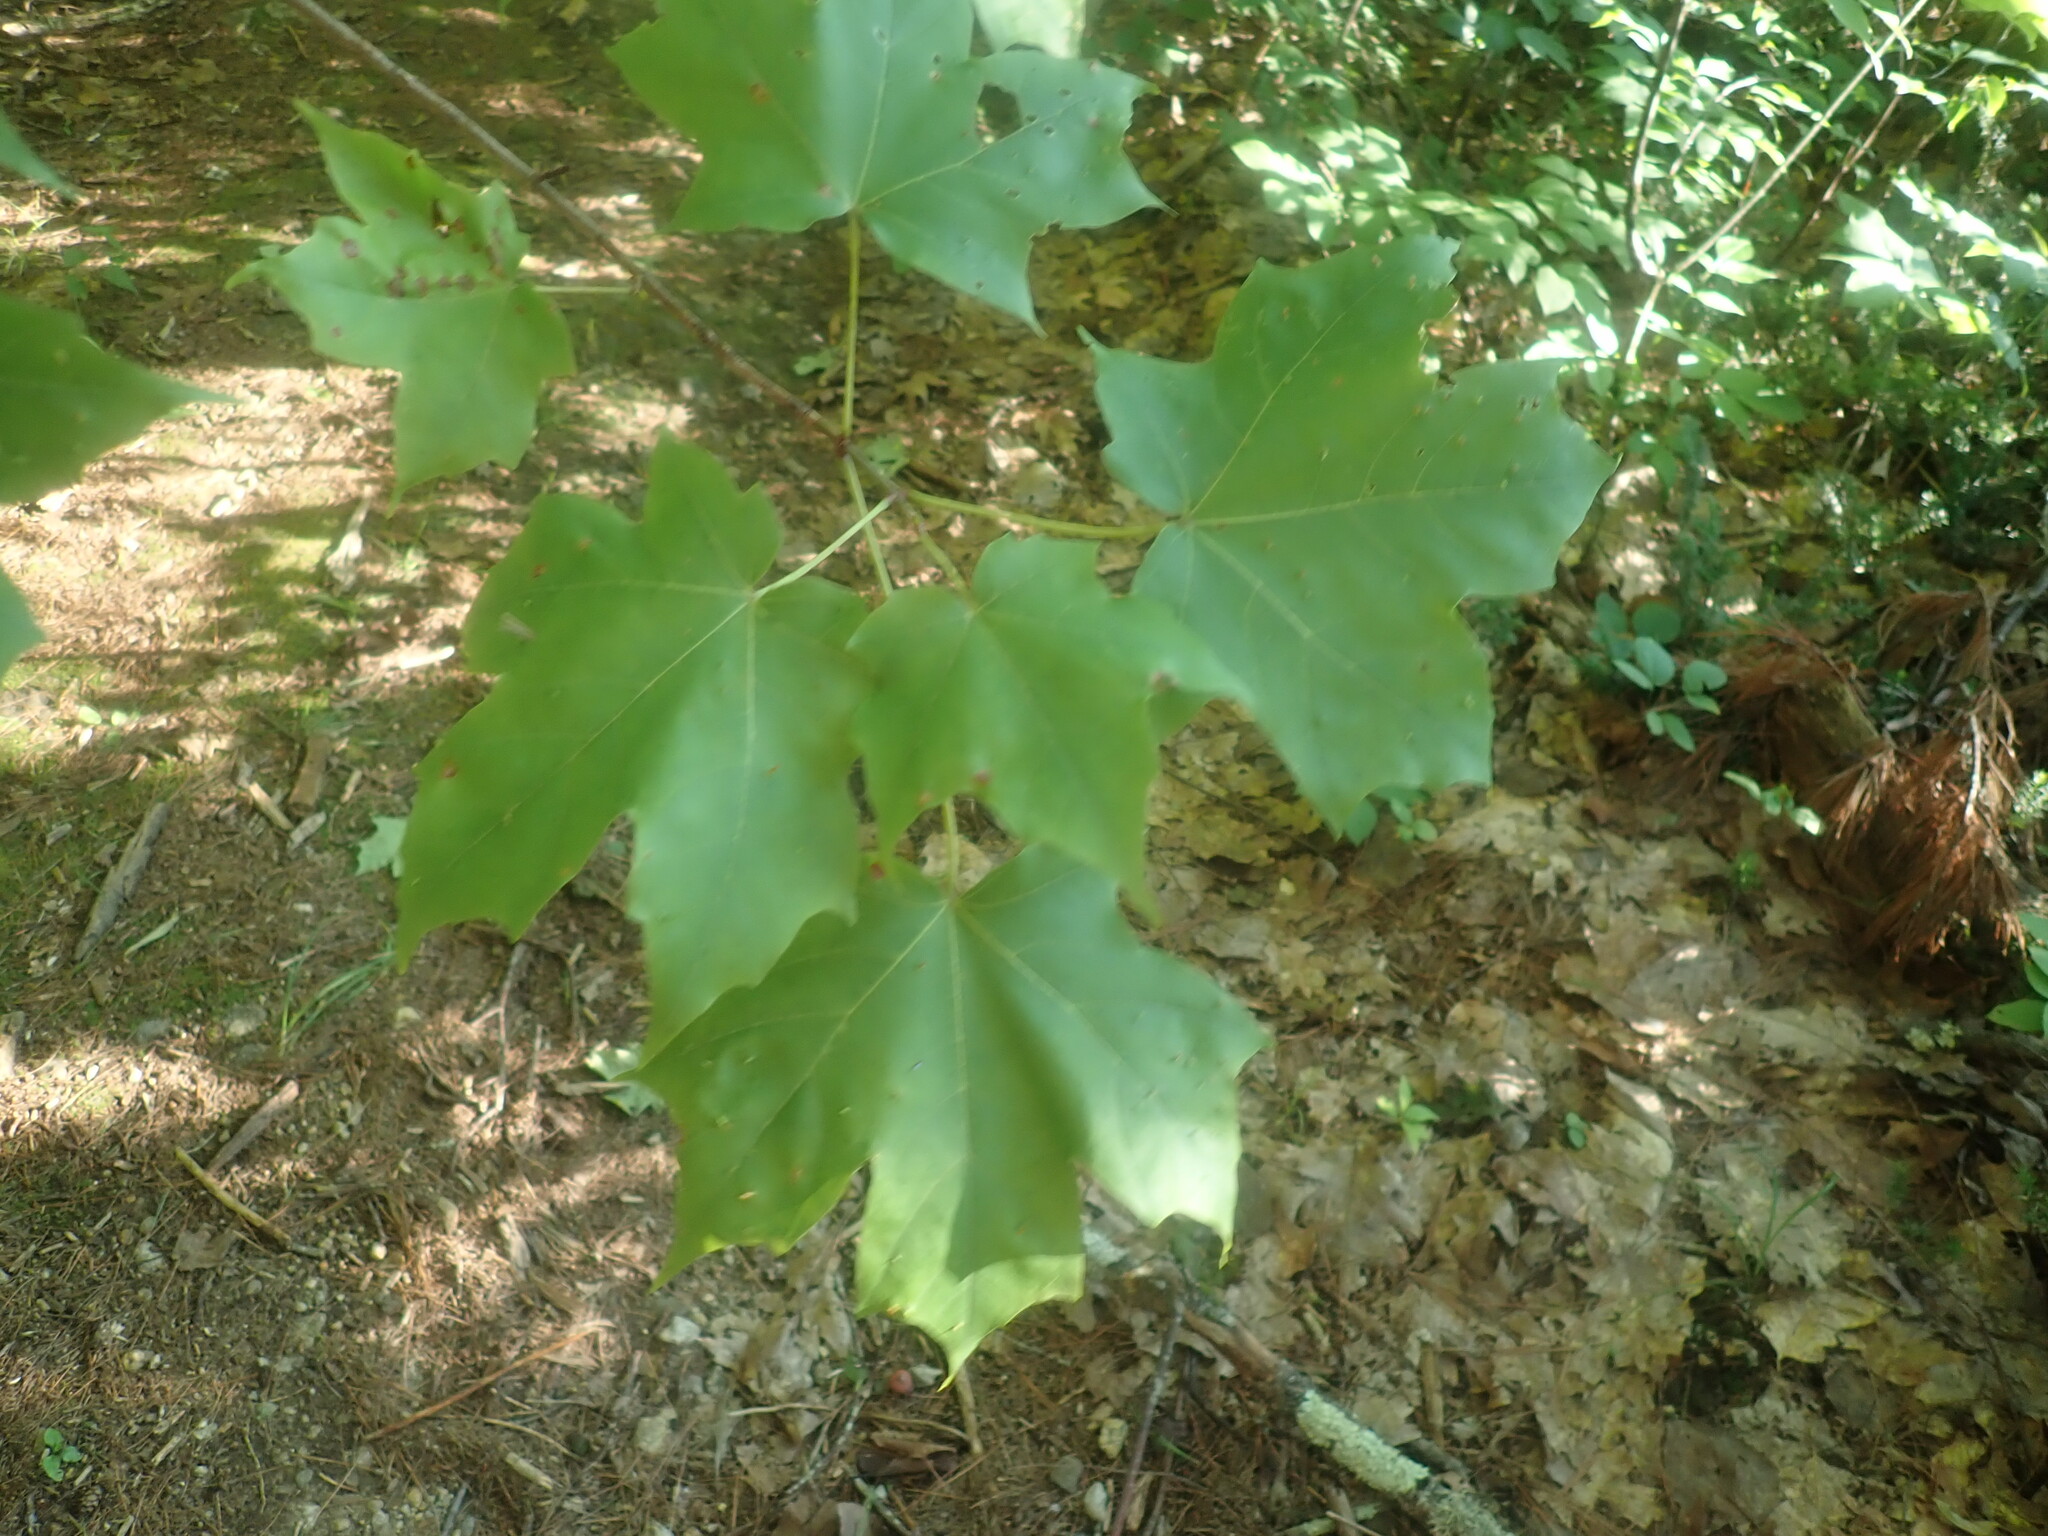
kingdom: Plantae
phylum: Tracheophyta
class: Magnoliopsida
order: Sapindales
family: Sapindaceae
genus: Acer
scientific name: Acer saccharum
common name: Sugar maple
